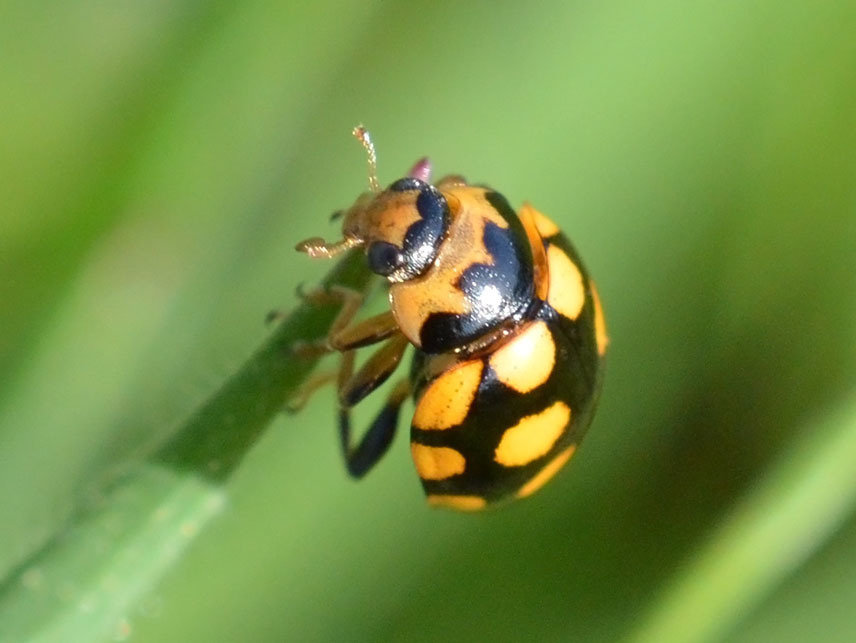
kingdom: Animalia
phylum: Arthropoda
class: Insecta
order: Coleoptera
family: Coccinellidae
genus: Coccinula
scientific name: Coccinula quatuordecimpustulata
